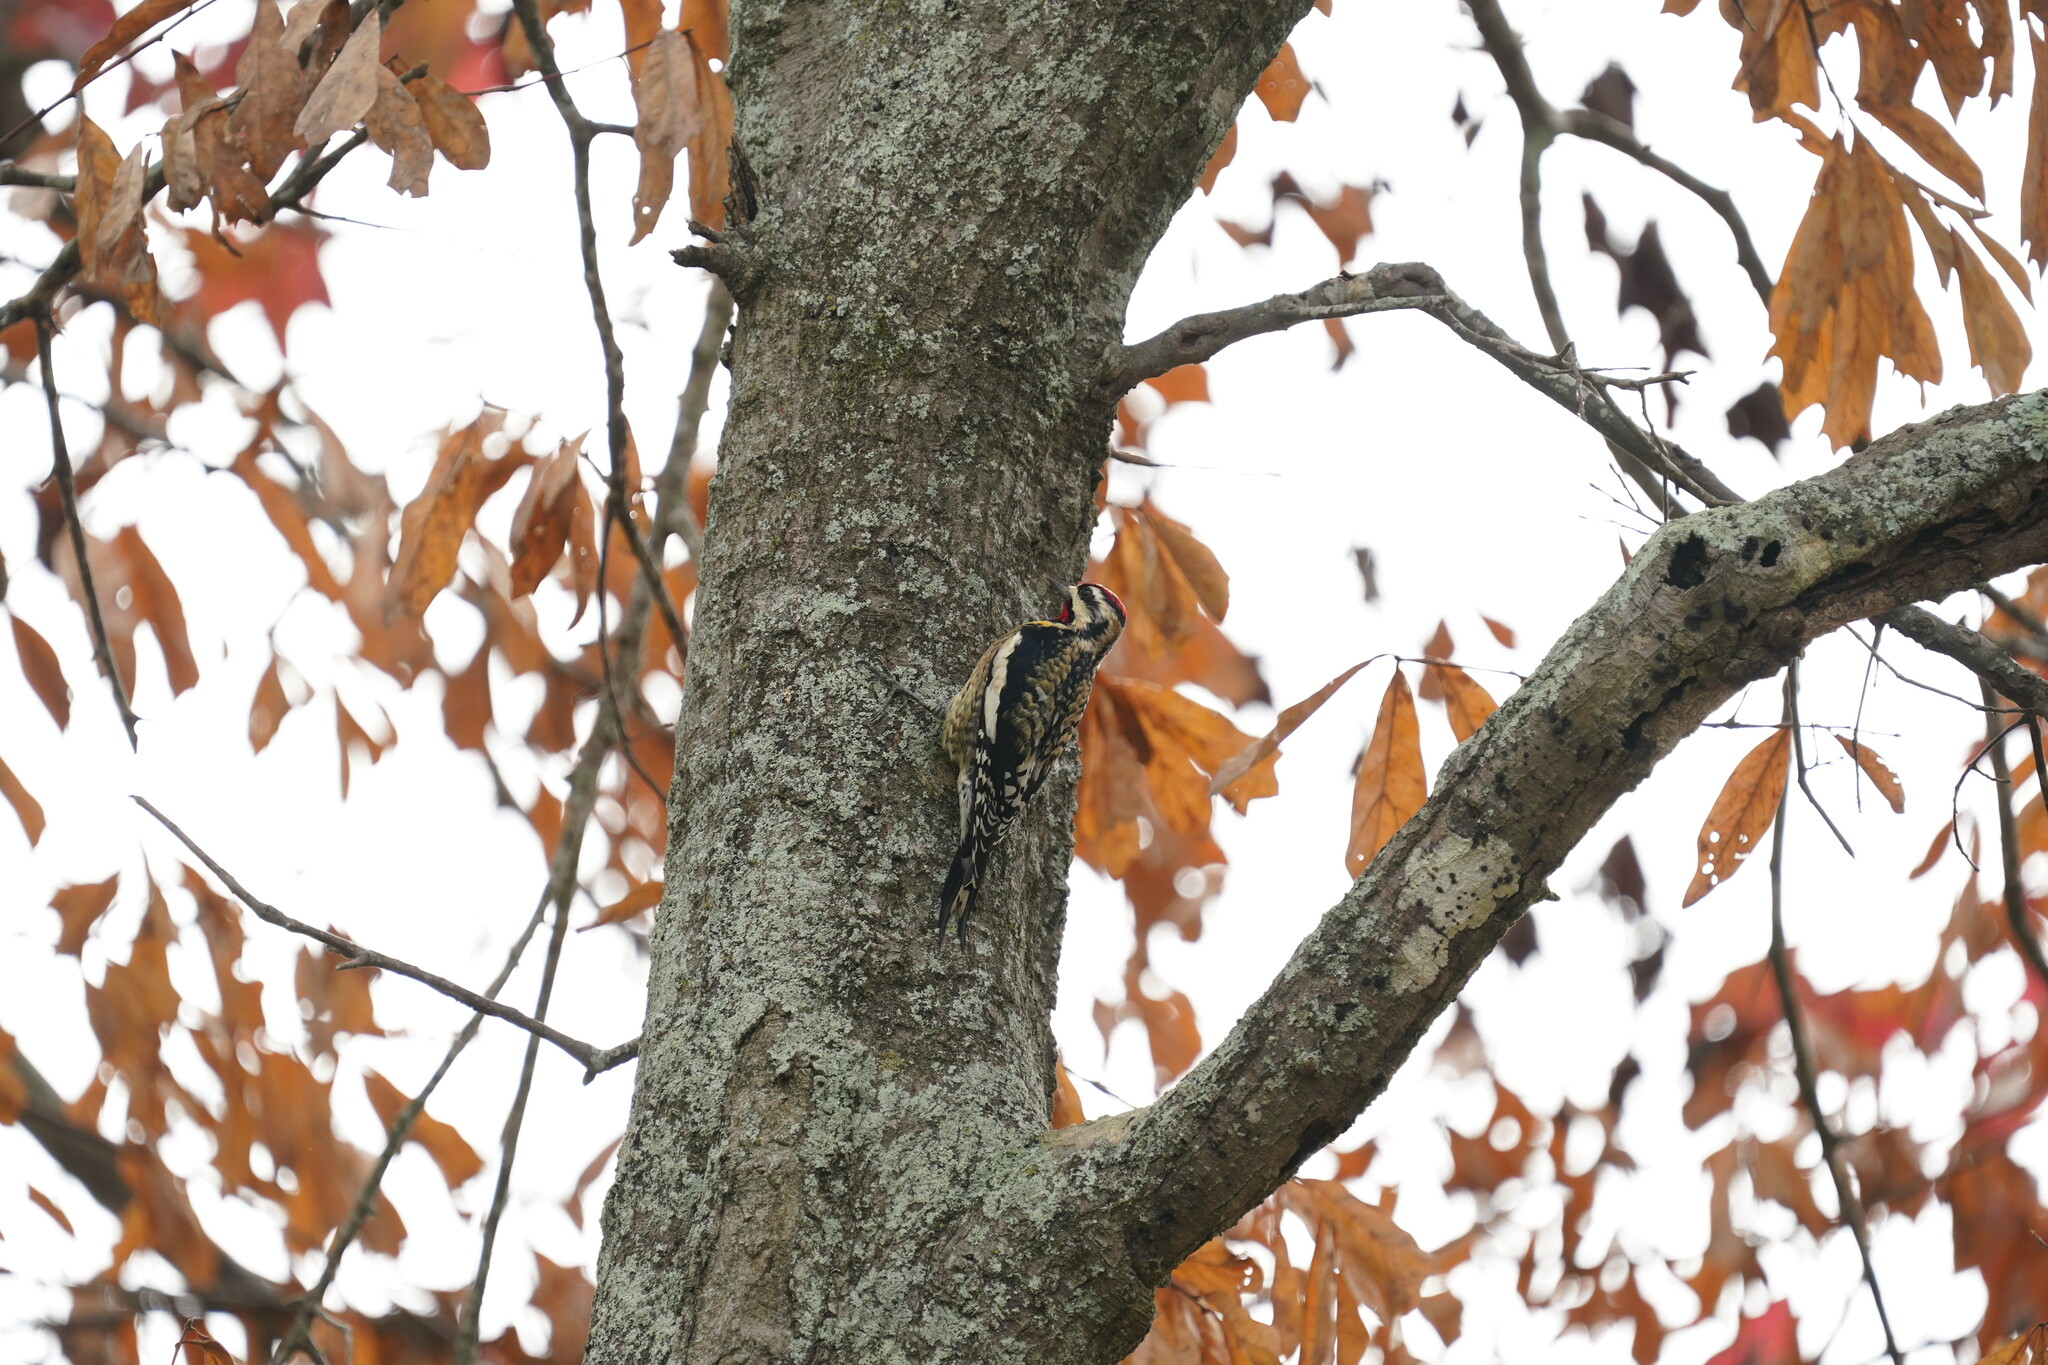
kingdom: Animalia
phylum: Chordata
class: Aves
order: Piciformes
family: Picidae
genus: Sphyrapicus
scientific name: Sphyrapicus varius
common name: Yellow-bellied sapsucker
